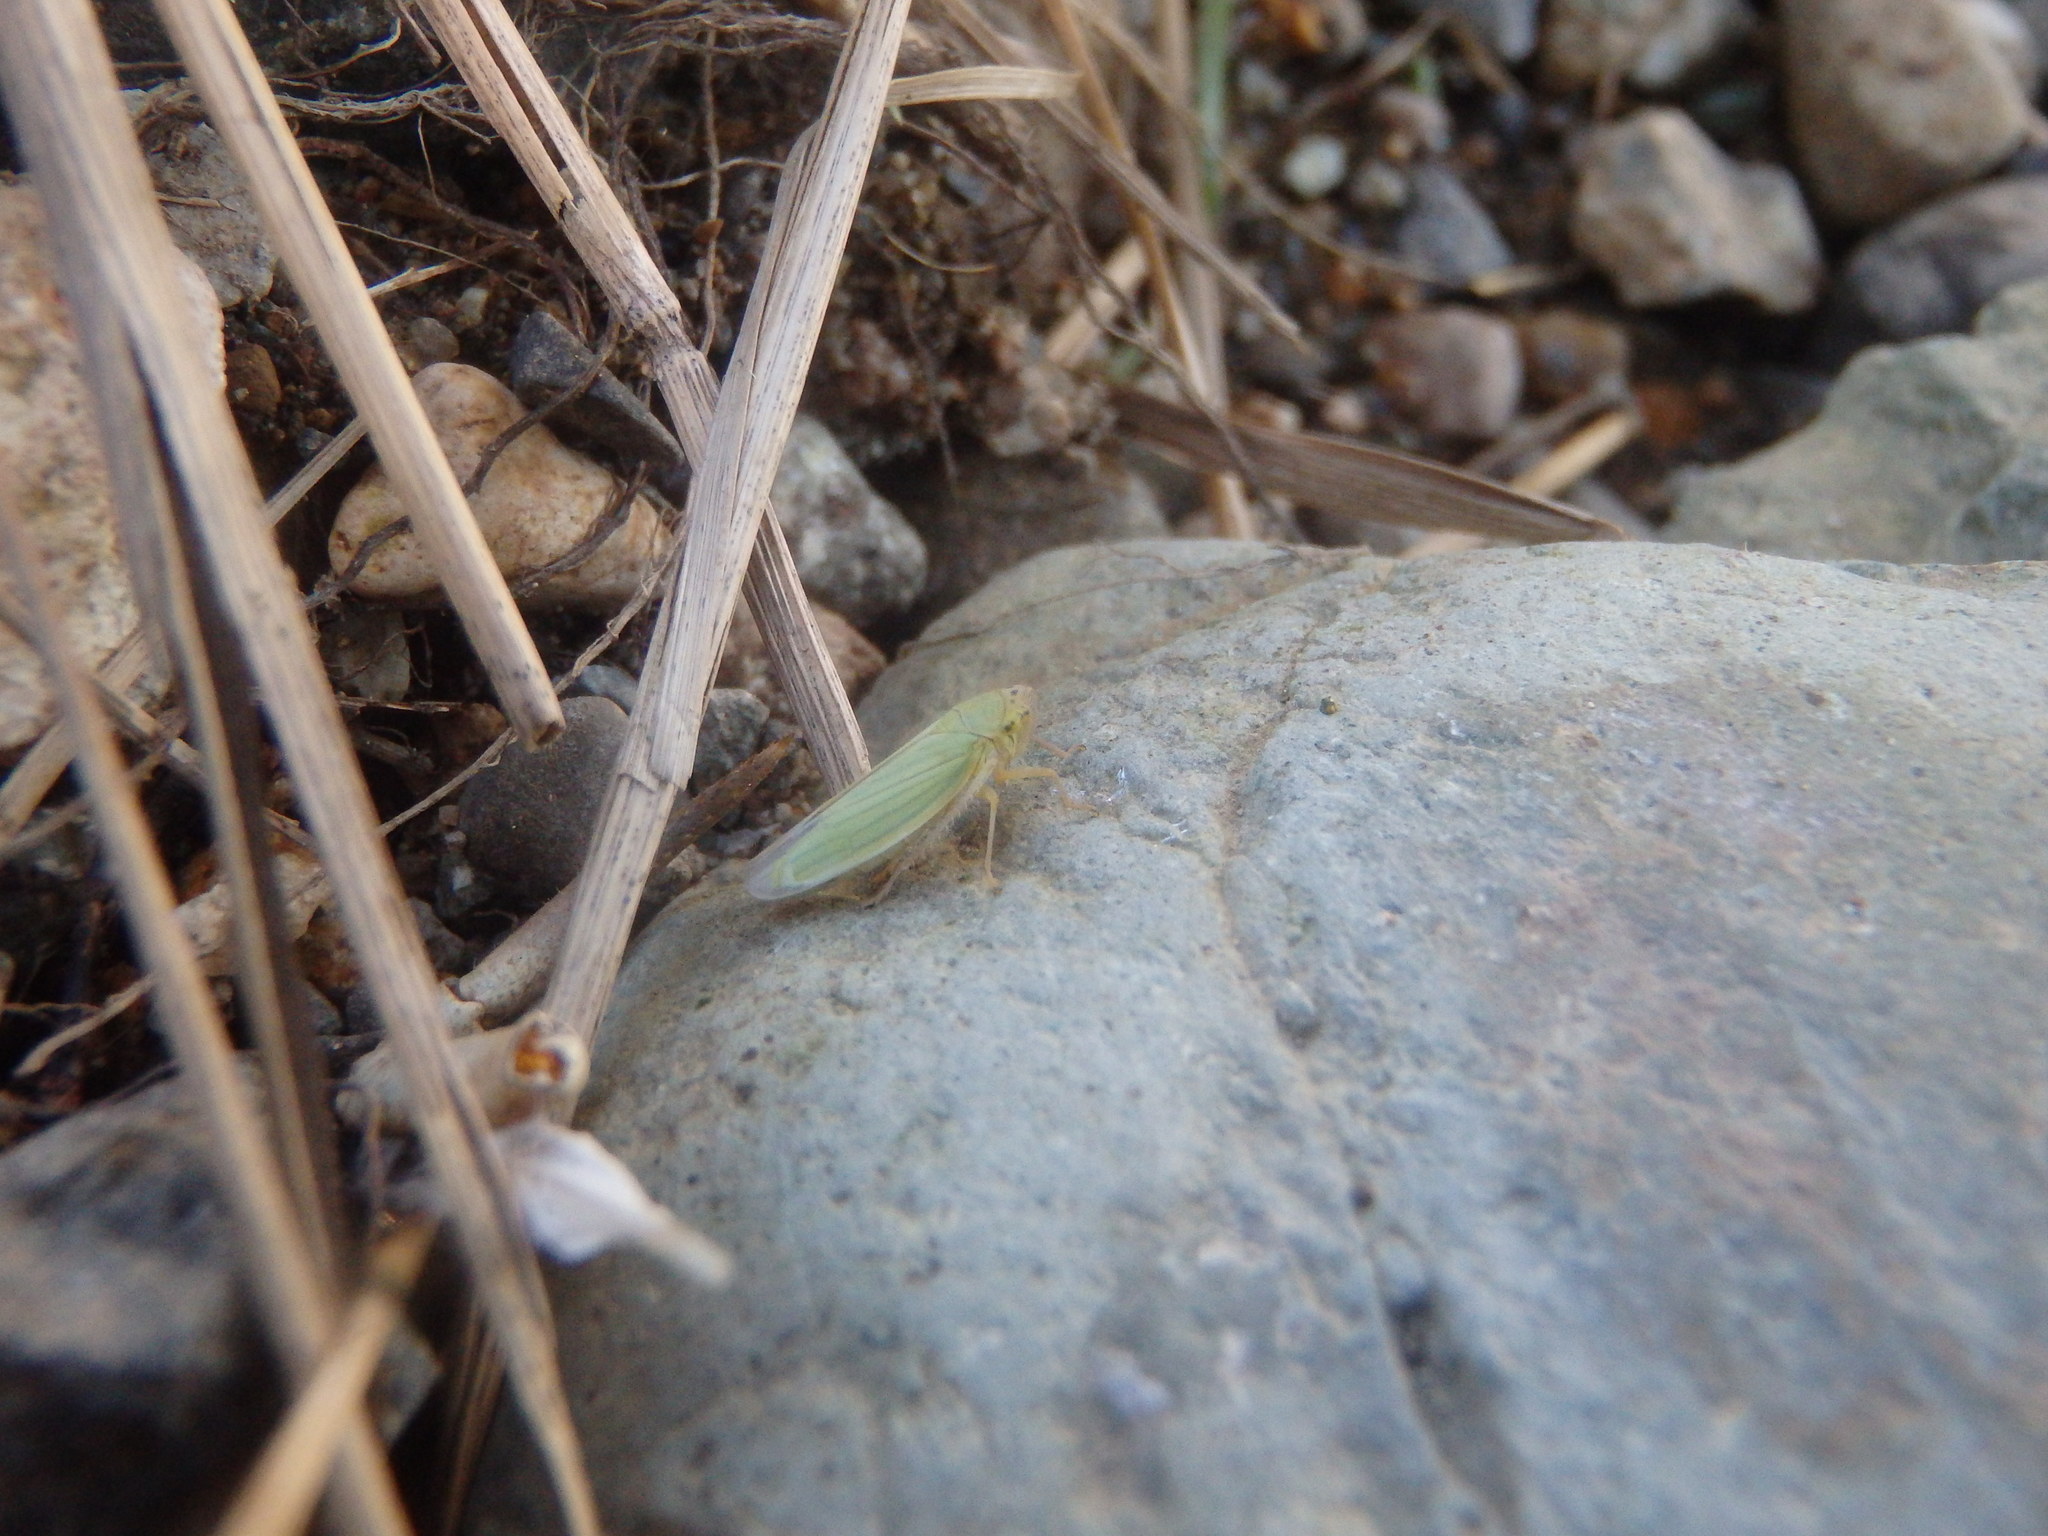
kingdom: Animalia
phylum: Arthropoda
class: Insecta
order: Hemiptera
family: Cicadellidae
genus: Cicadella
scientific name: Cicadella viridis
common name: Leafhopper
